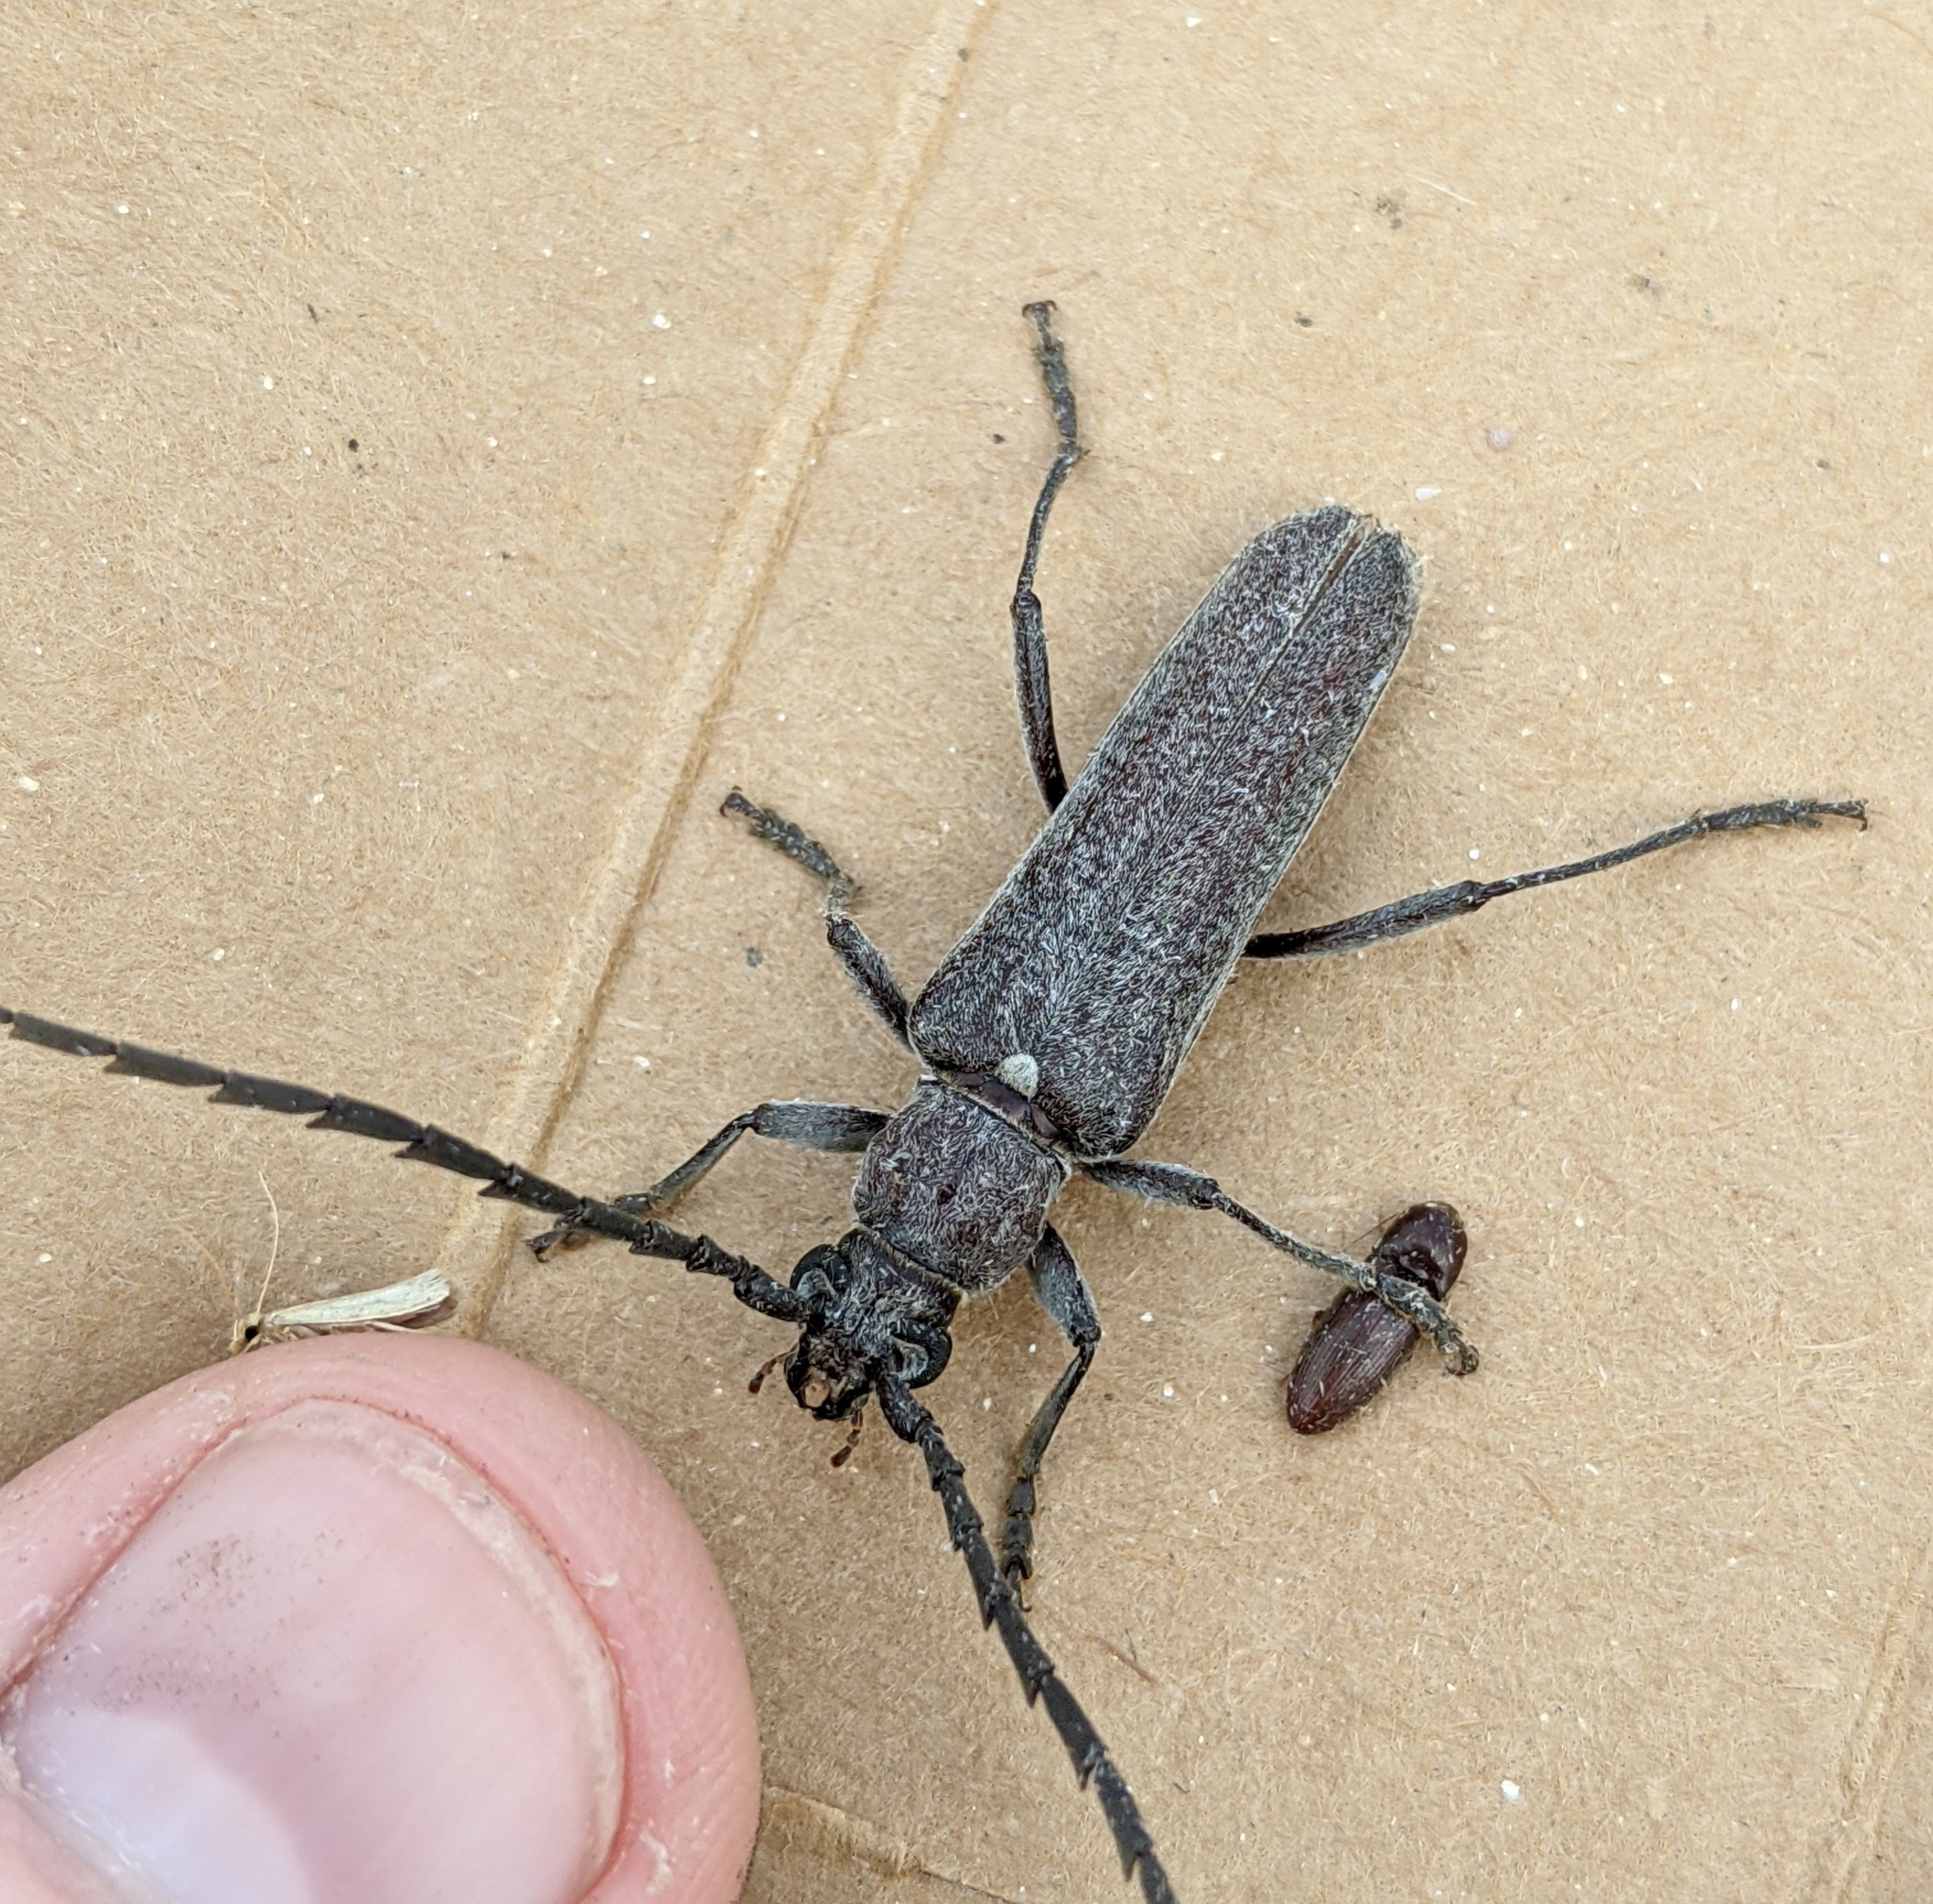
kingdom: Animalia
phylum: Arthropoda
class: Insecta
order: Coleoptera
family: Cerambycidae
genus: Aneflus
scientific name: Aneflus obscurus
